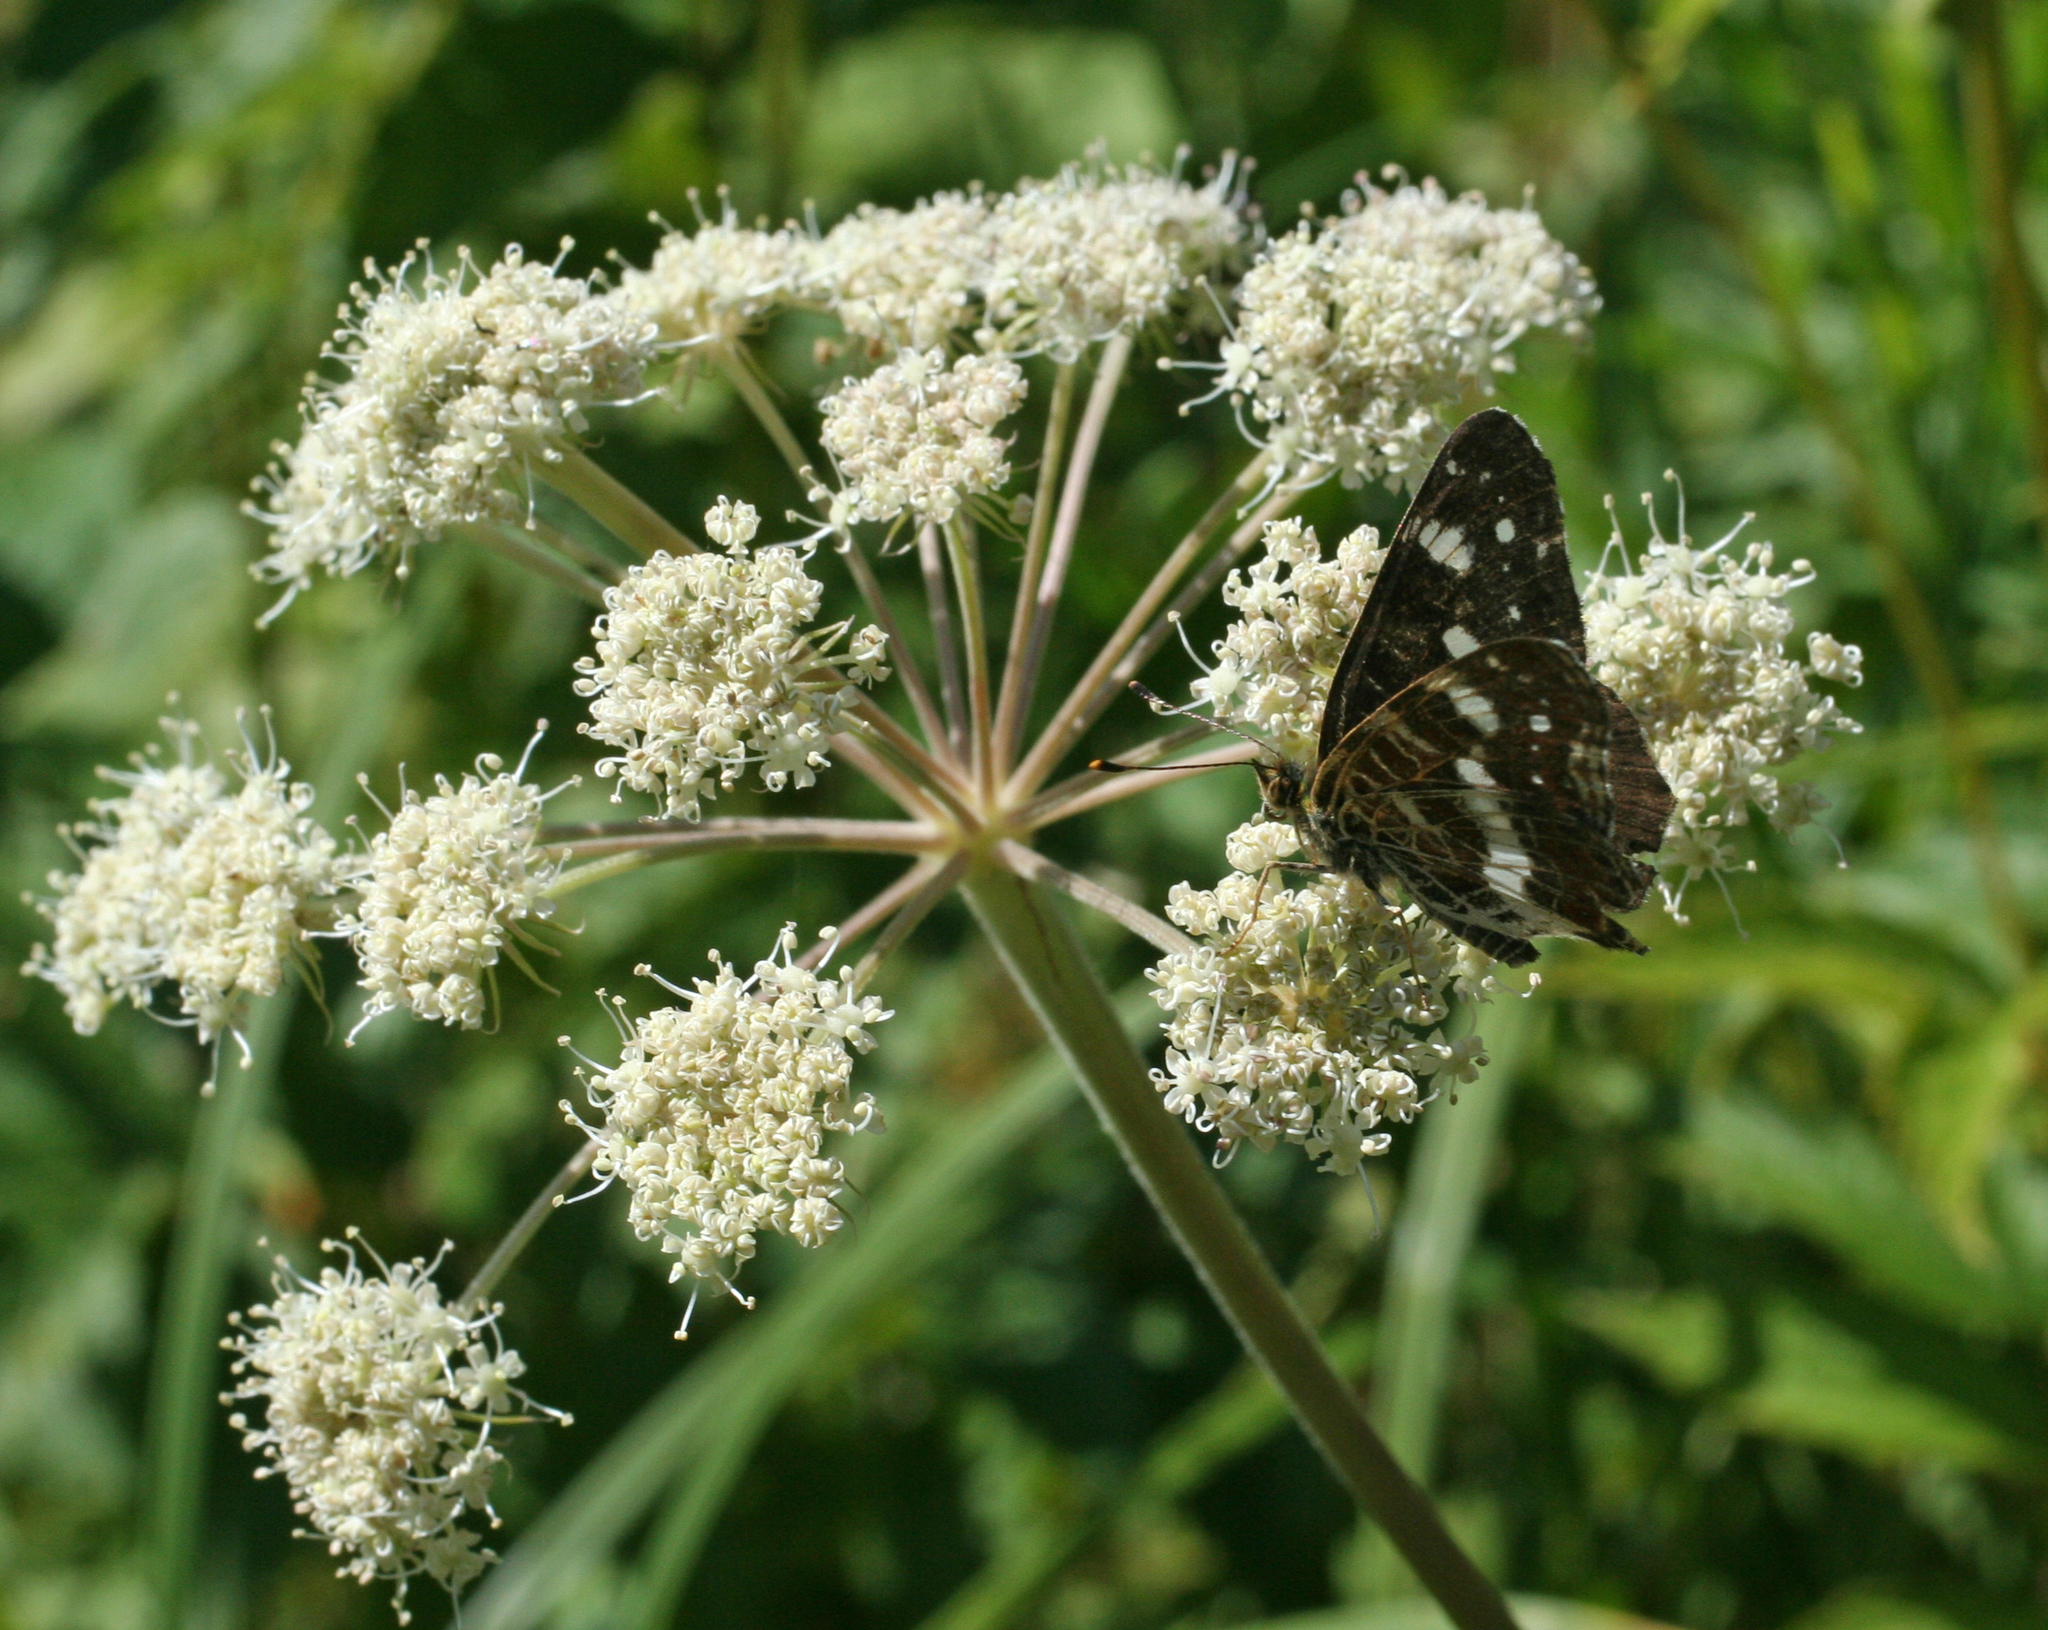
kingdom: Animalia
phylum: Arthropoda
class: Insecta
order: Lepidoptera
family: Nymphalidae
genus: Araschnia
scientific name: Araschnia levana
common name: Map butterfly
